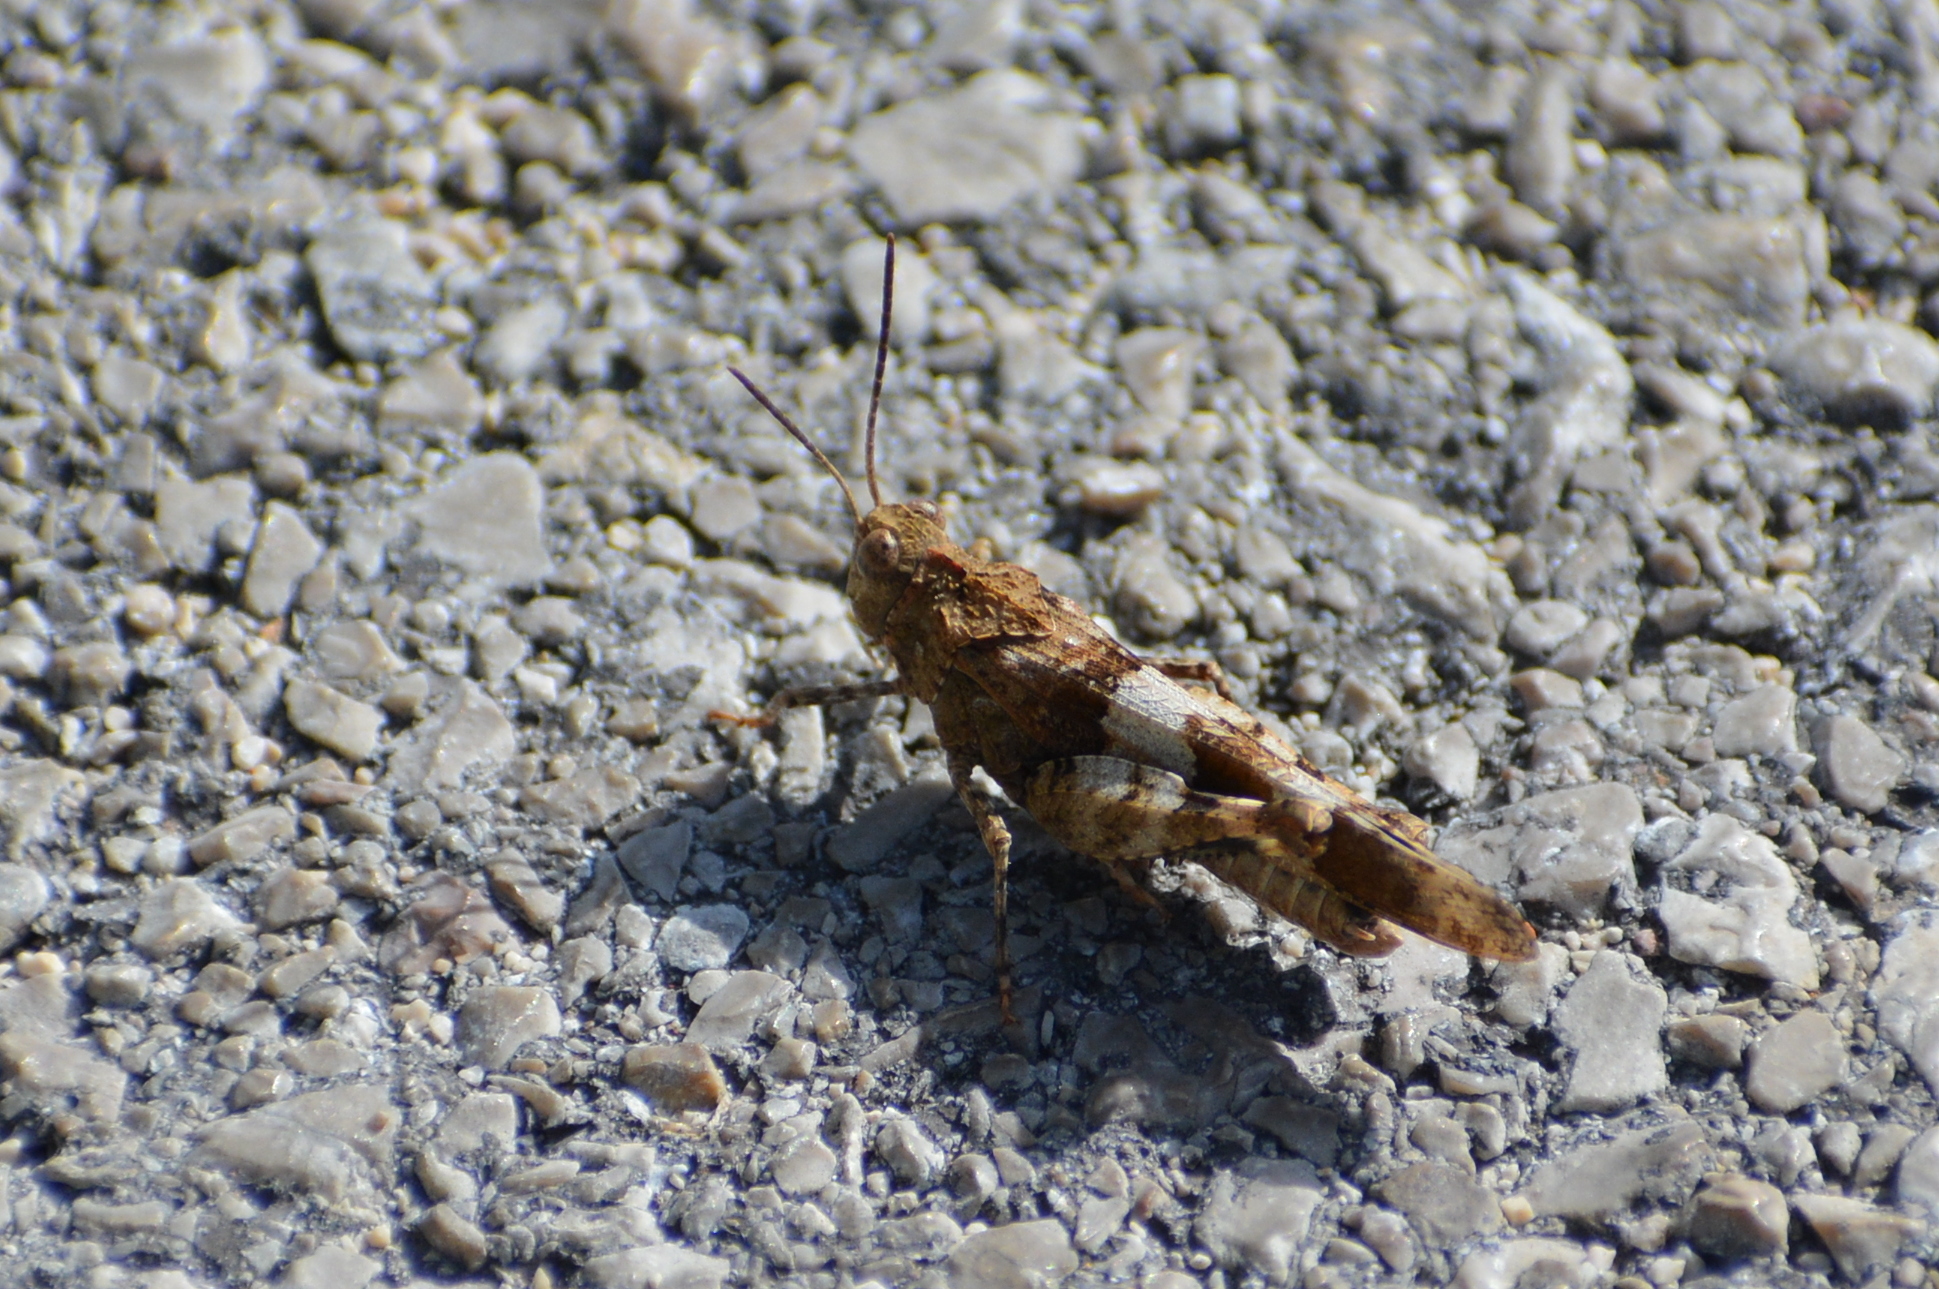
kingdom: Animalia
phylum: Arthropoda
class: Insecta
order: Orthoptera
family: Acrididae
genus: Oedipoda
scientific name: Oedipoda caerulescens
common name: Blue-winged grasshopper
